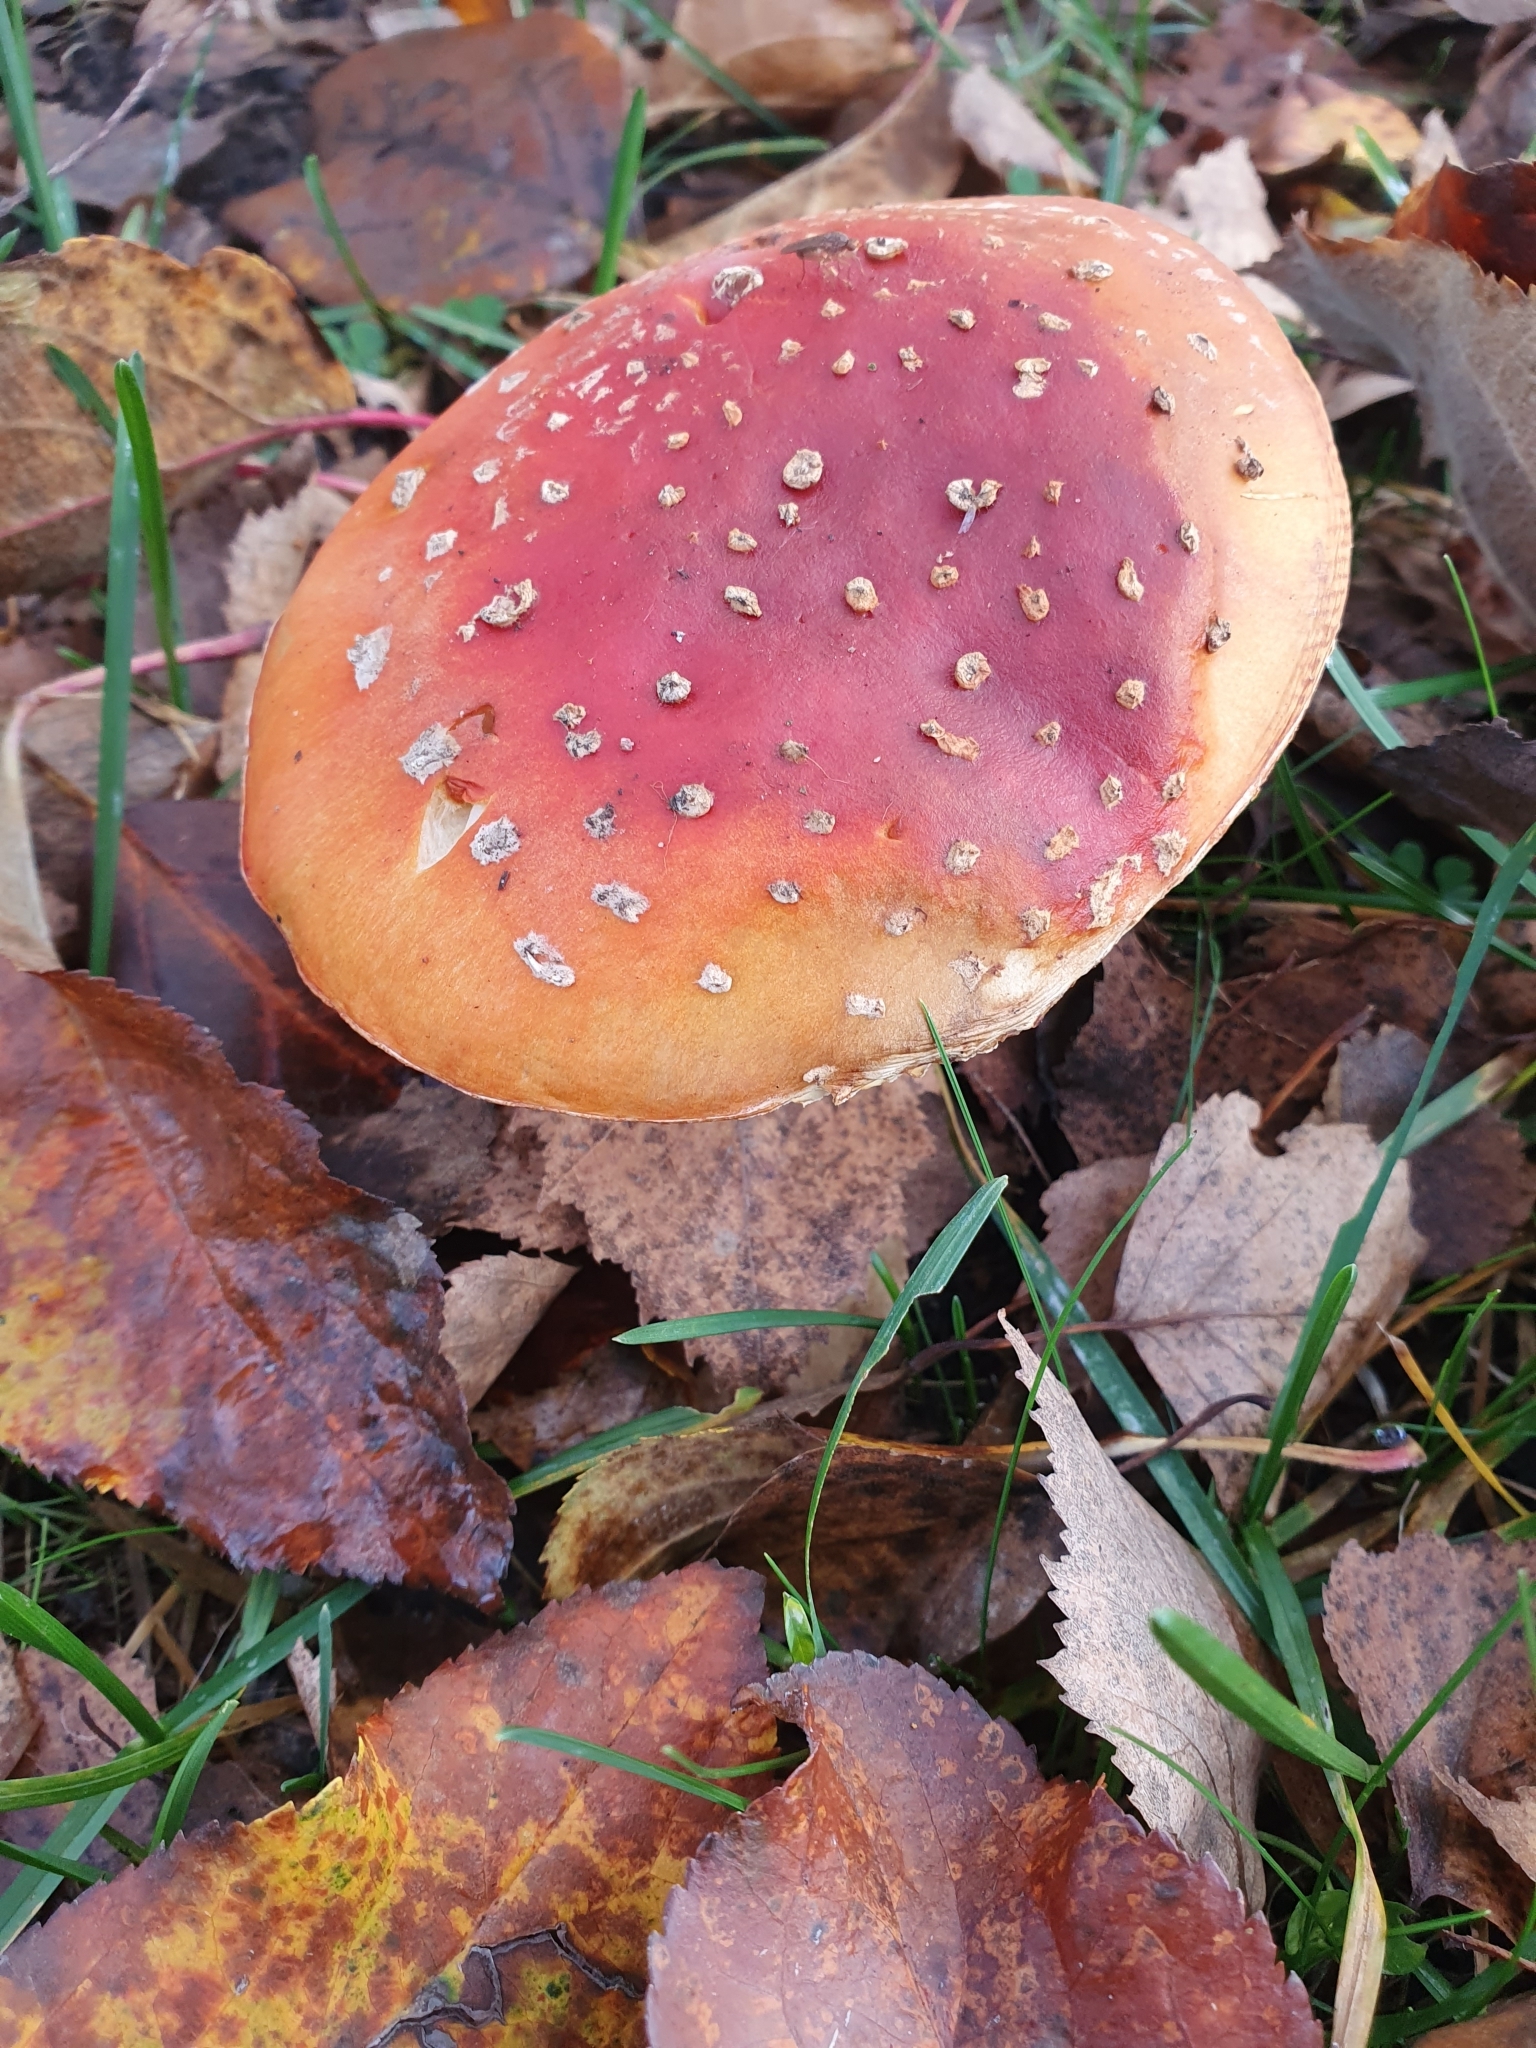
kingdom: Fungi
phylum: Basidiomycota
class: Agaricomycetes
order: Agaricales
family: Amanitaceae
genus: Amanita
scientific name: Amanita muscaria
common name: Fly agaric
